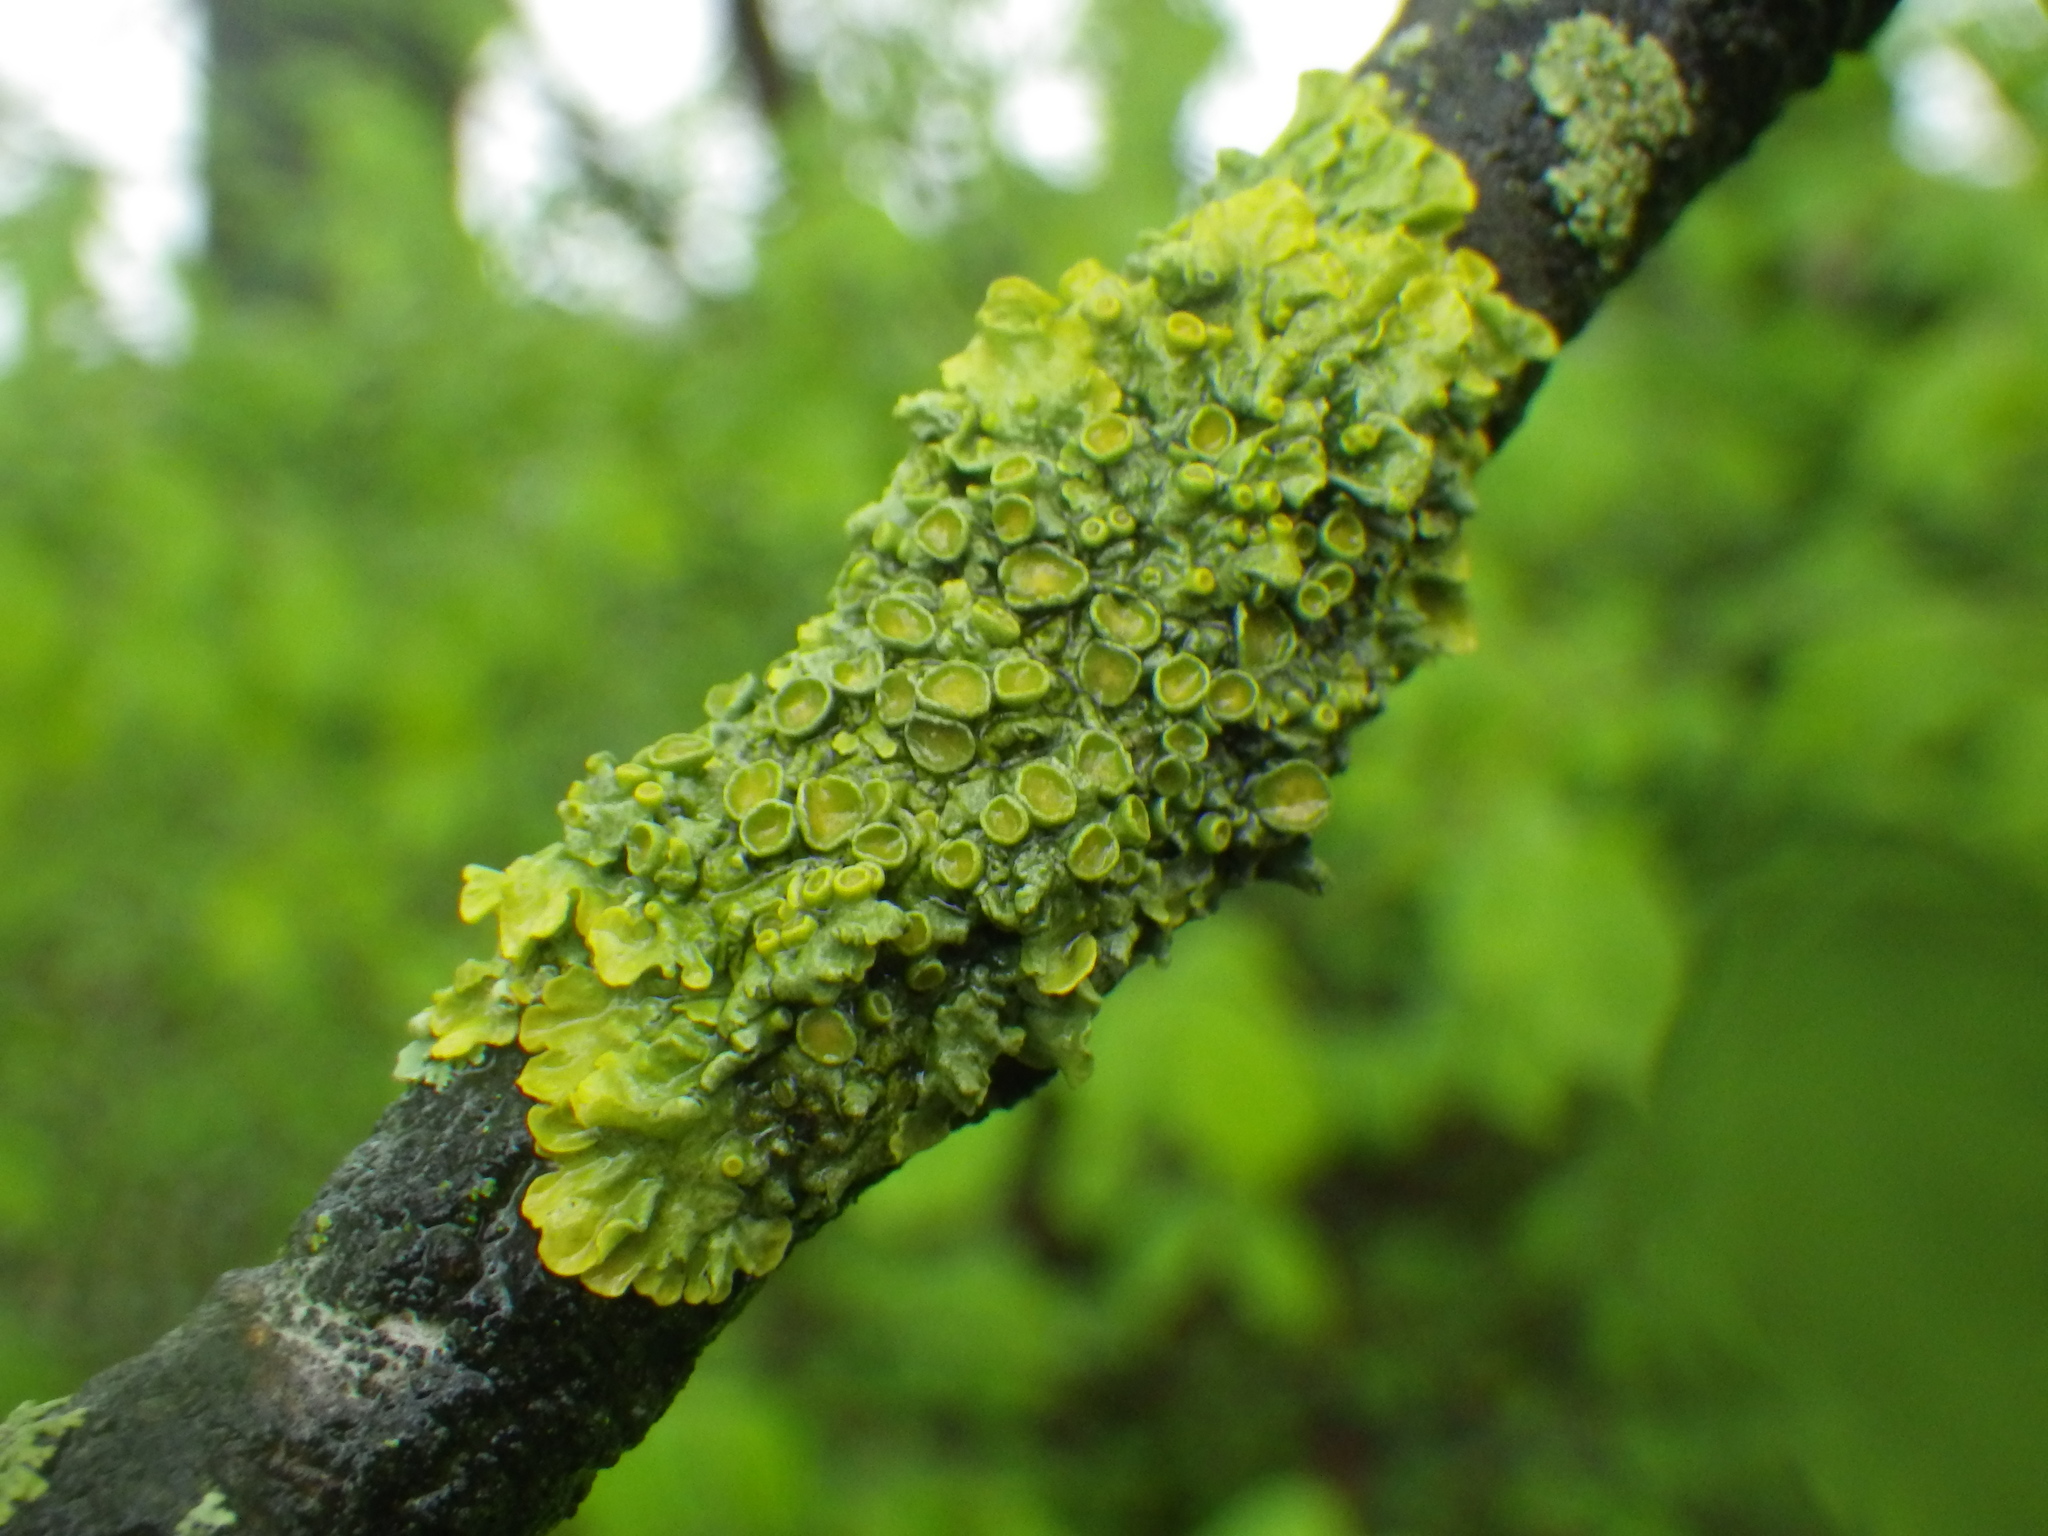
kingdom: Fungi
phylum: Ascomycota
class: Lecanoromycetes
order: Teloschistales
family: Teloschistaceae
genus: Xanthoria
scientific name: Xanthoria parietina
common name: Common orange lichen
